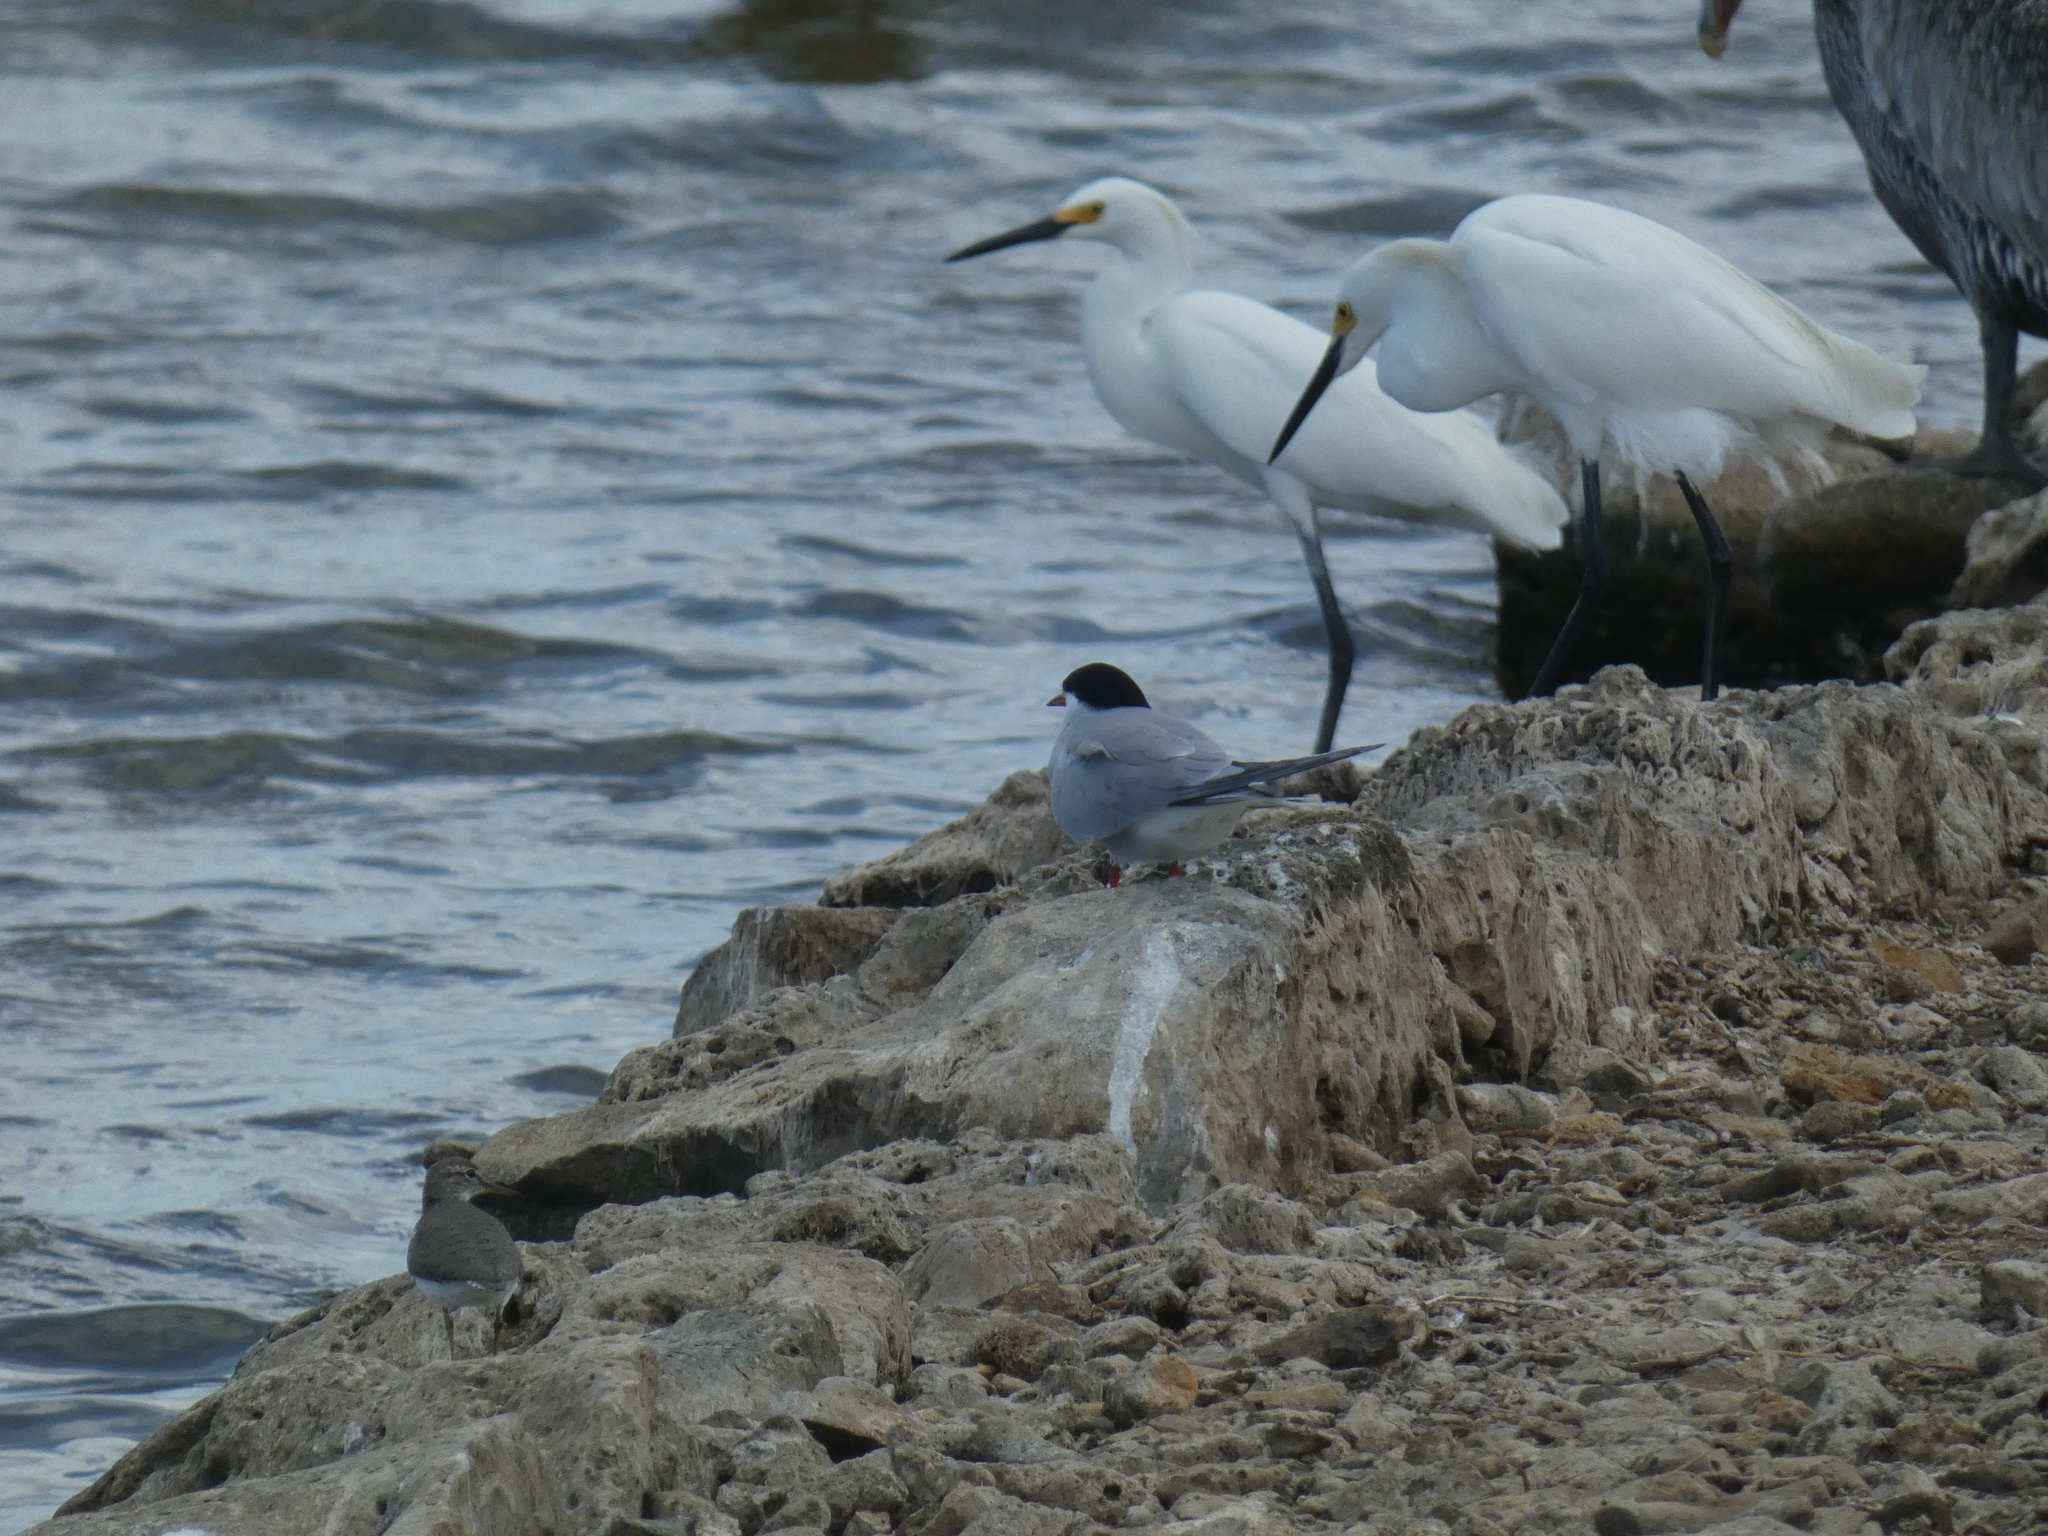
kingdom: Animalia
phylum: Chordata
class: Aves
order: Pelecaniformes
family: Ardeidae
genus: Egretta
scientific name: Egretta thula
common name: Snowy egret
